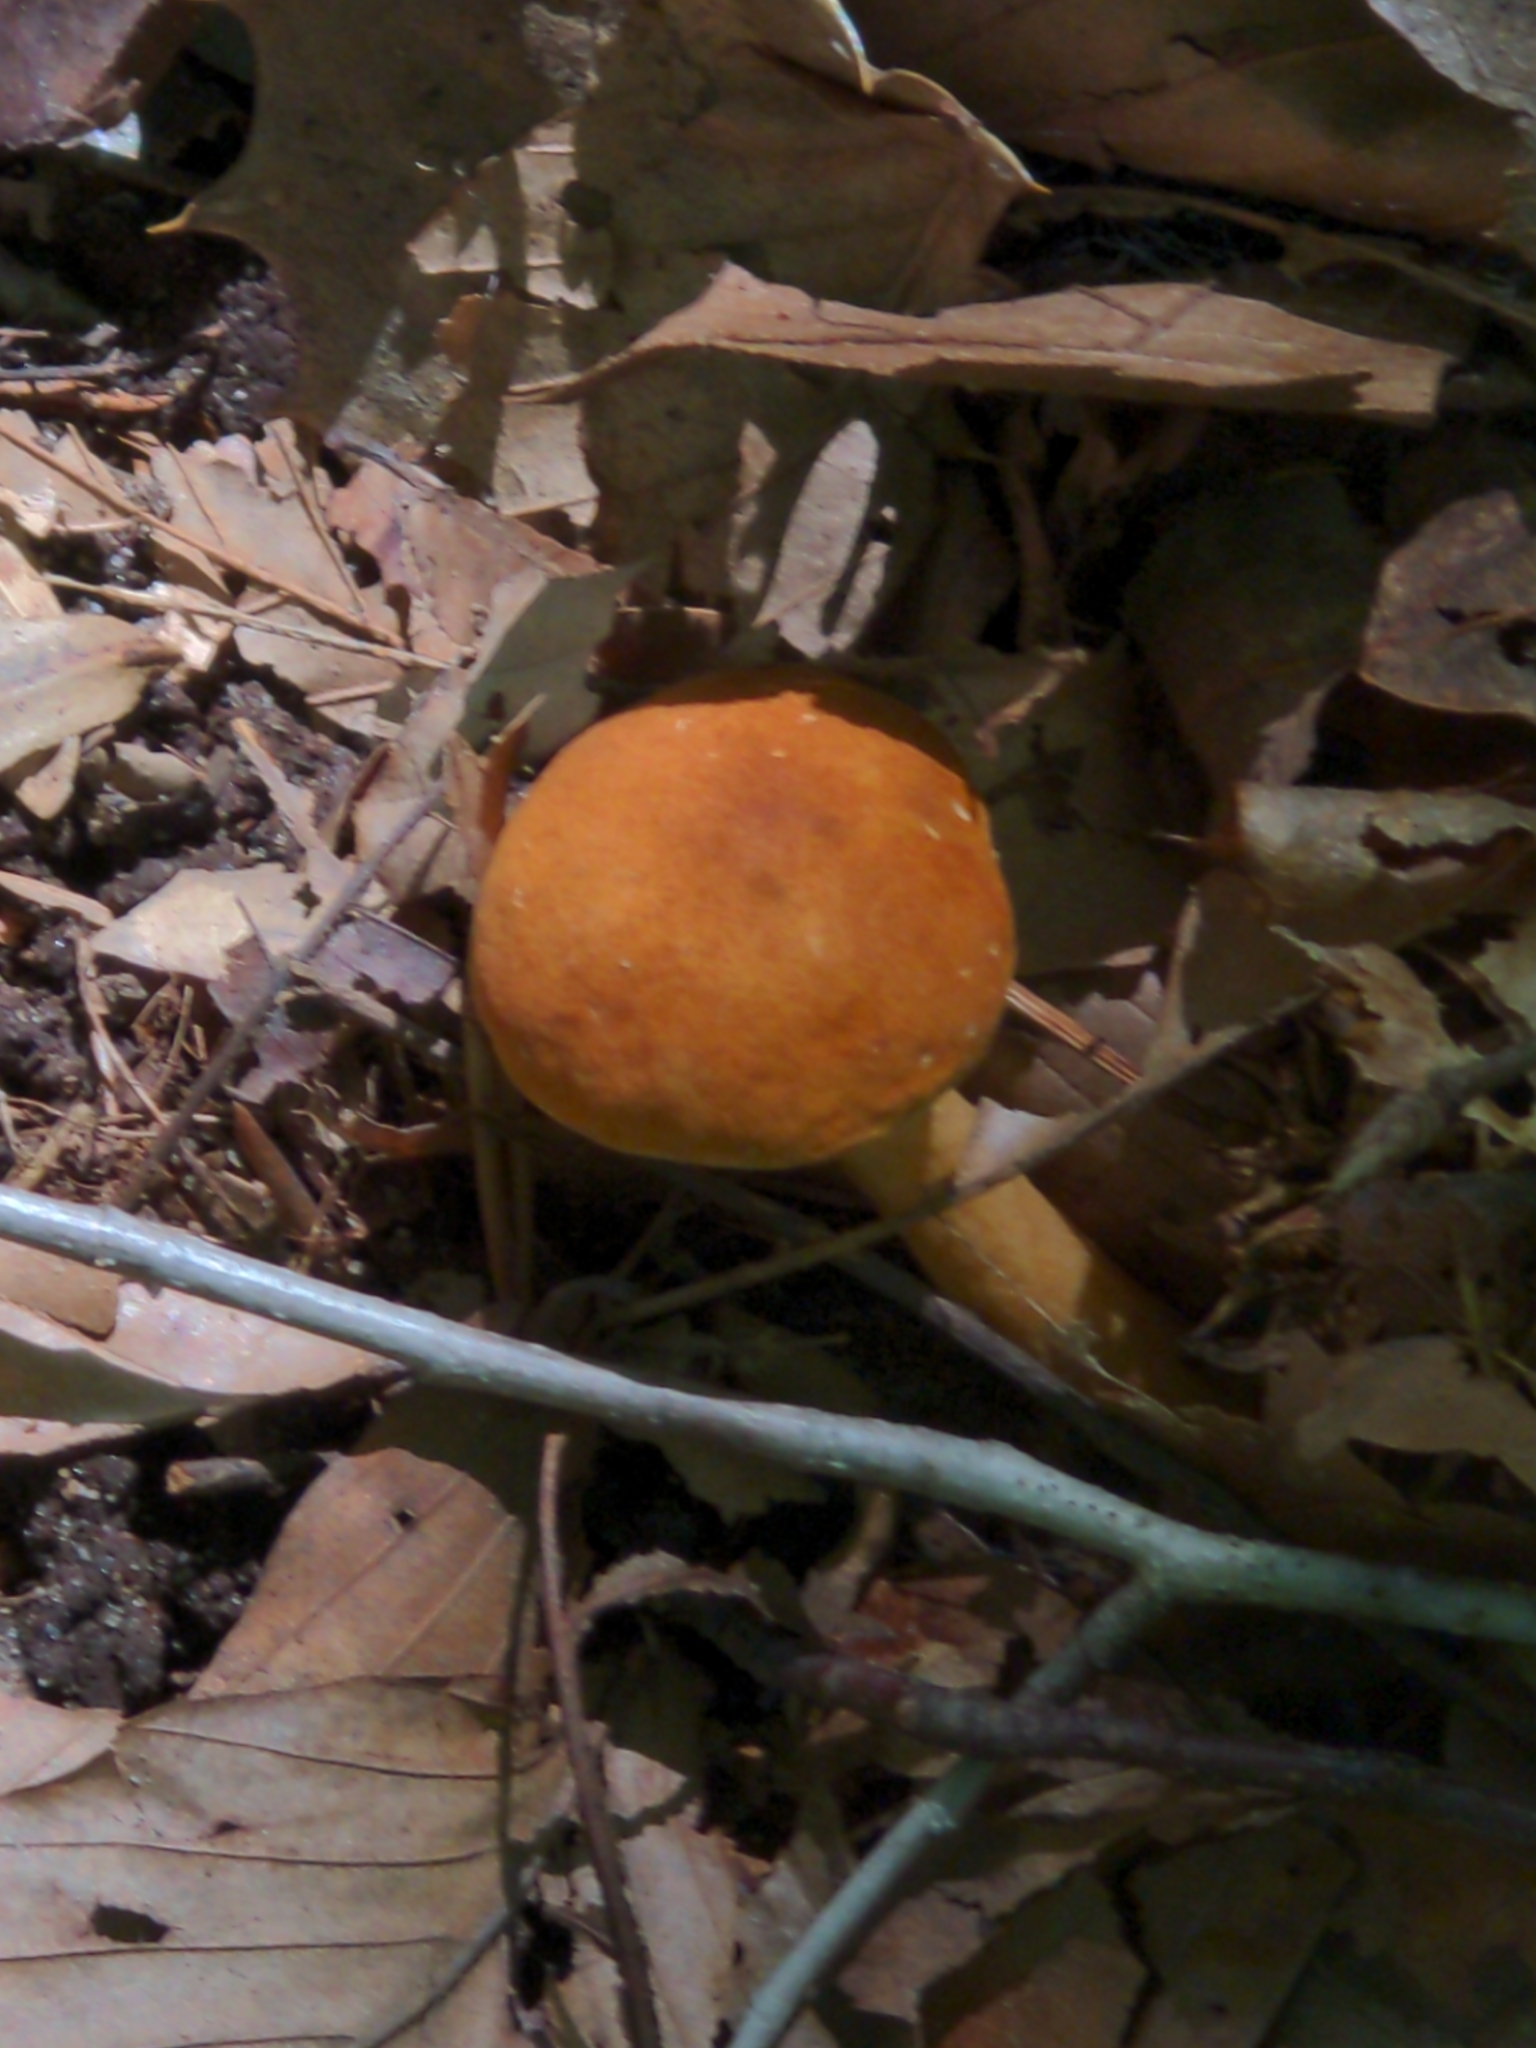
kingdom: Fungi
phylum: Basidiomycota
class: Agaricomycetes
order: Boletales
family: Gyroporaceae
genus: Gyroporus
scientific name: Gyroporus castaneus
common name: Chestnut bolete
